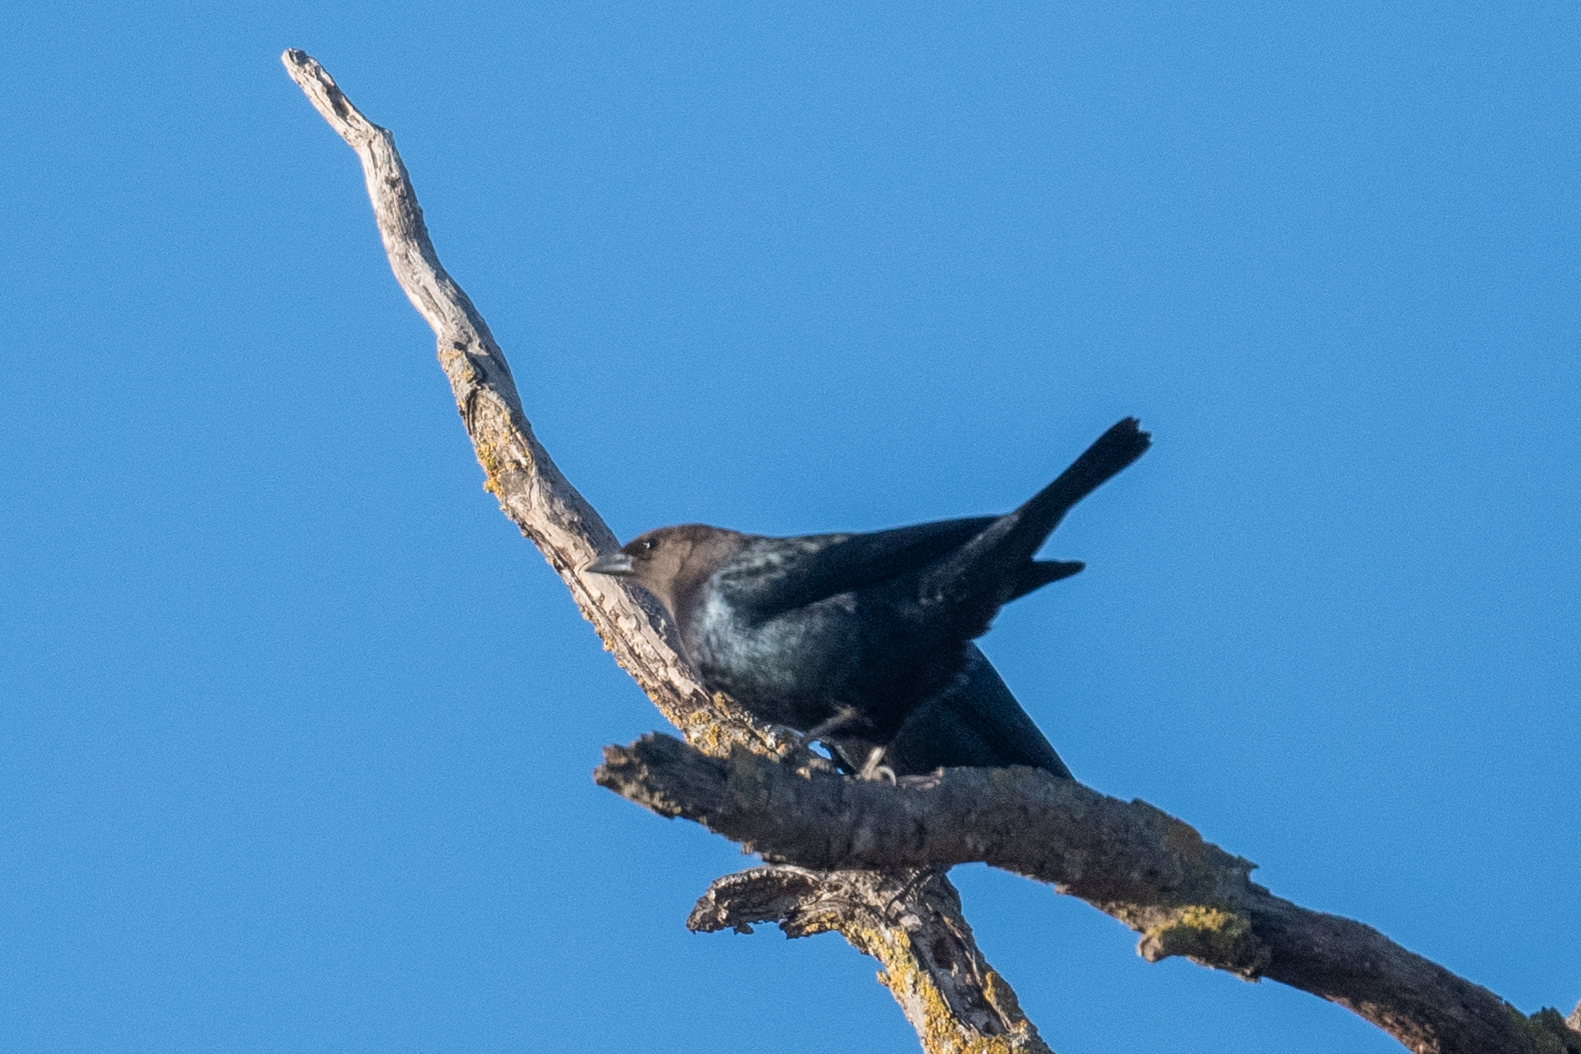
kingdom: Animalia
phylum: Chordata
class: Aves
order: Passeriformes
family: Icteridae
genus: Molothrus
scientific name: Molothrus ater
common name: Brown-headed cowbird
